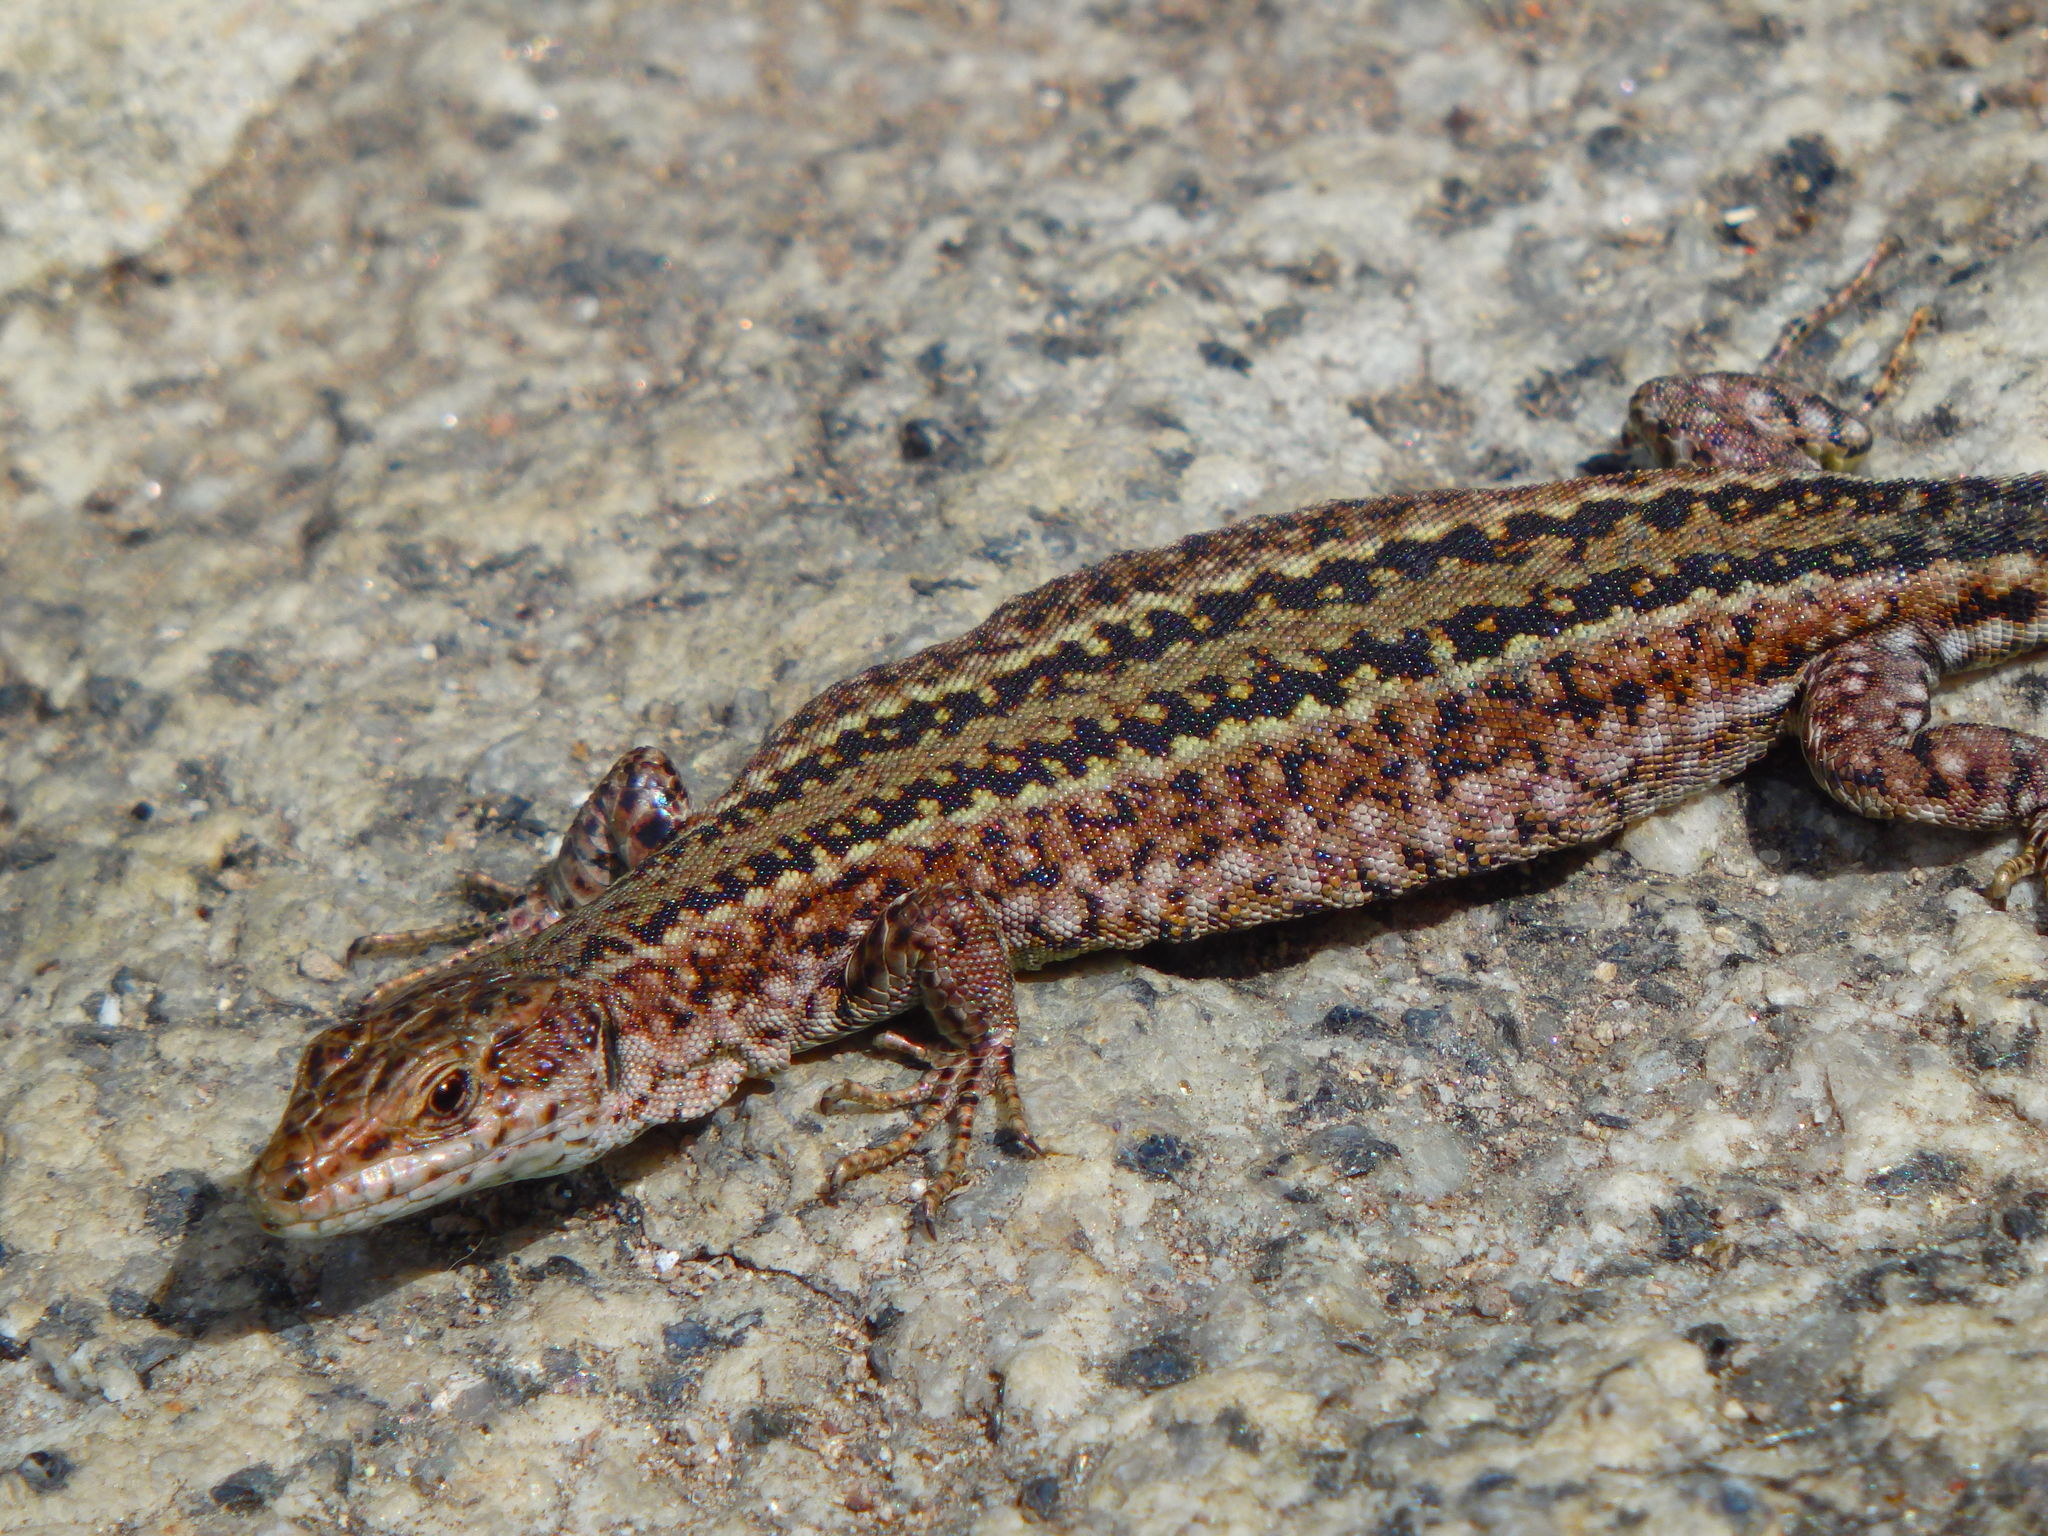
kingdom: Animalia
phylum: Chordata
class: Squamata
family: Lacertidae
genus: Podarcis
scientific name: Podarcis
